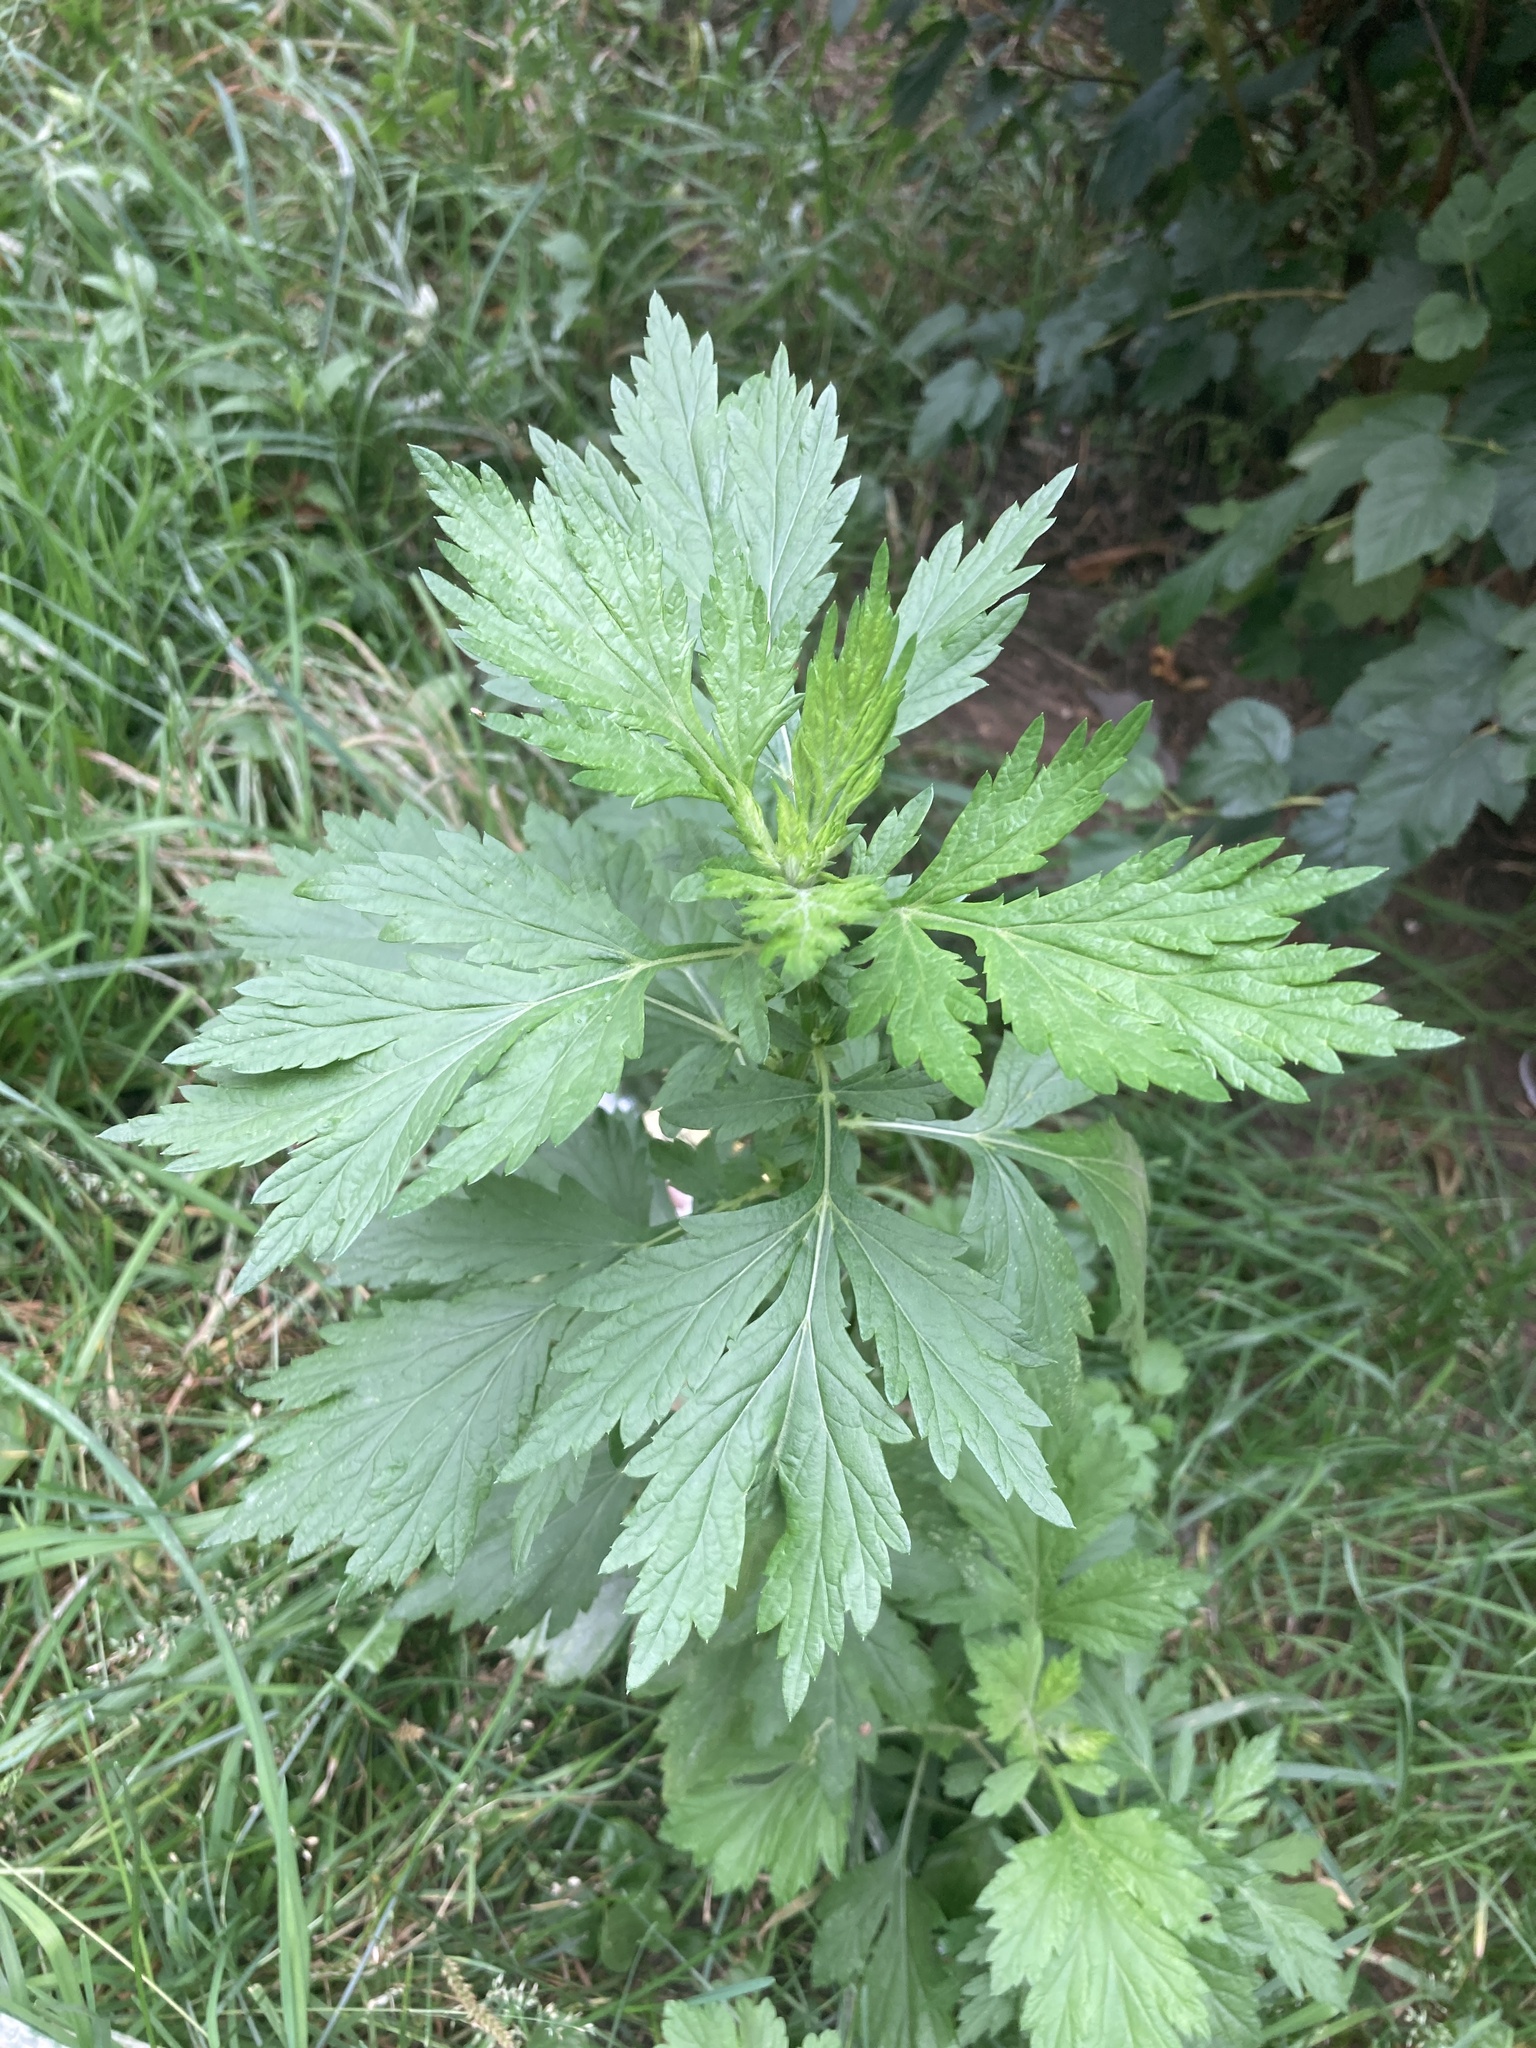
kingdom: Plantae
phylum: Tracheophyta
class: Magnoliopsida
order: Asterales
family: Asteraceae
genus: Artemisia
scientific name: Artemisia vulgaris
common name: Mugwort
